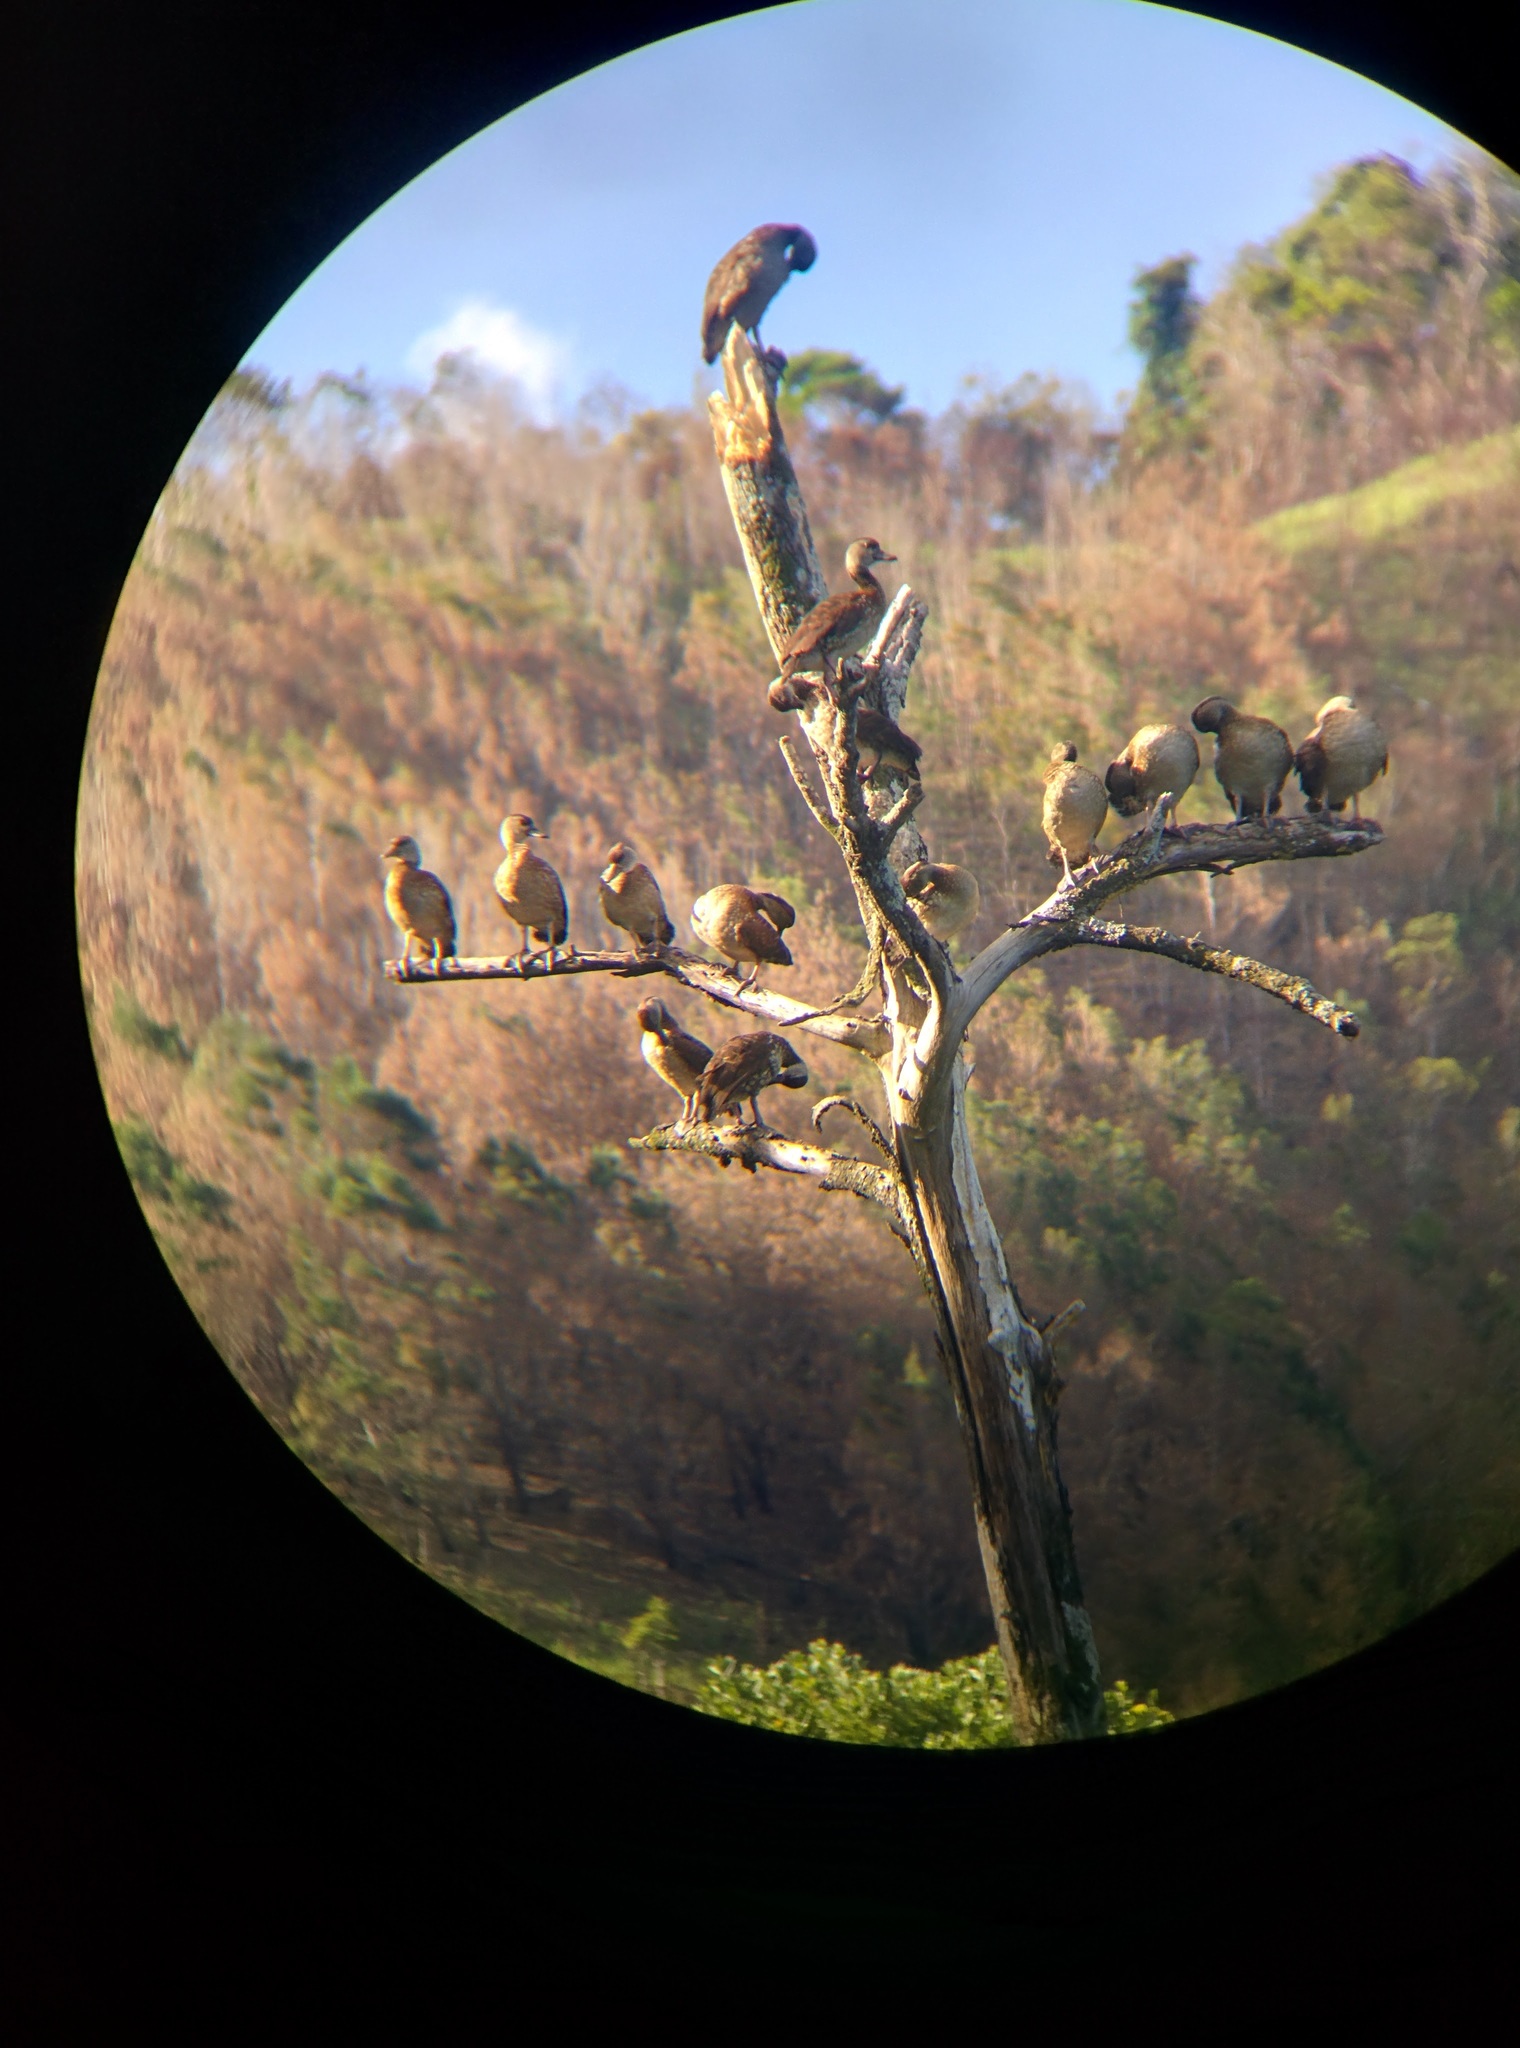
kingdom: Animalia
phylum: Chordata
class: Aves
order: Anseriformes
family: Anatidae
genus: Dendrocygna
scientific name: Dendrocygna guttata
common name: Spotted whistling-duck
